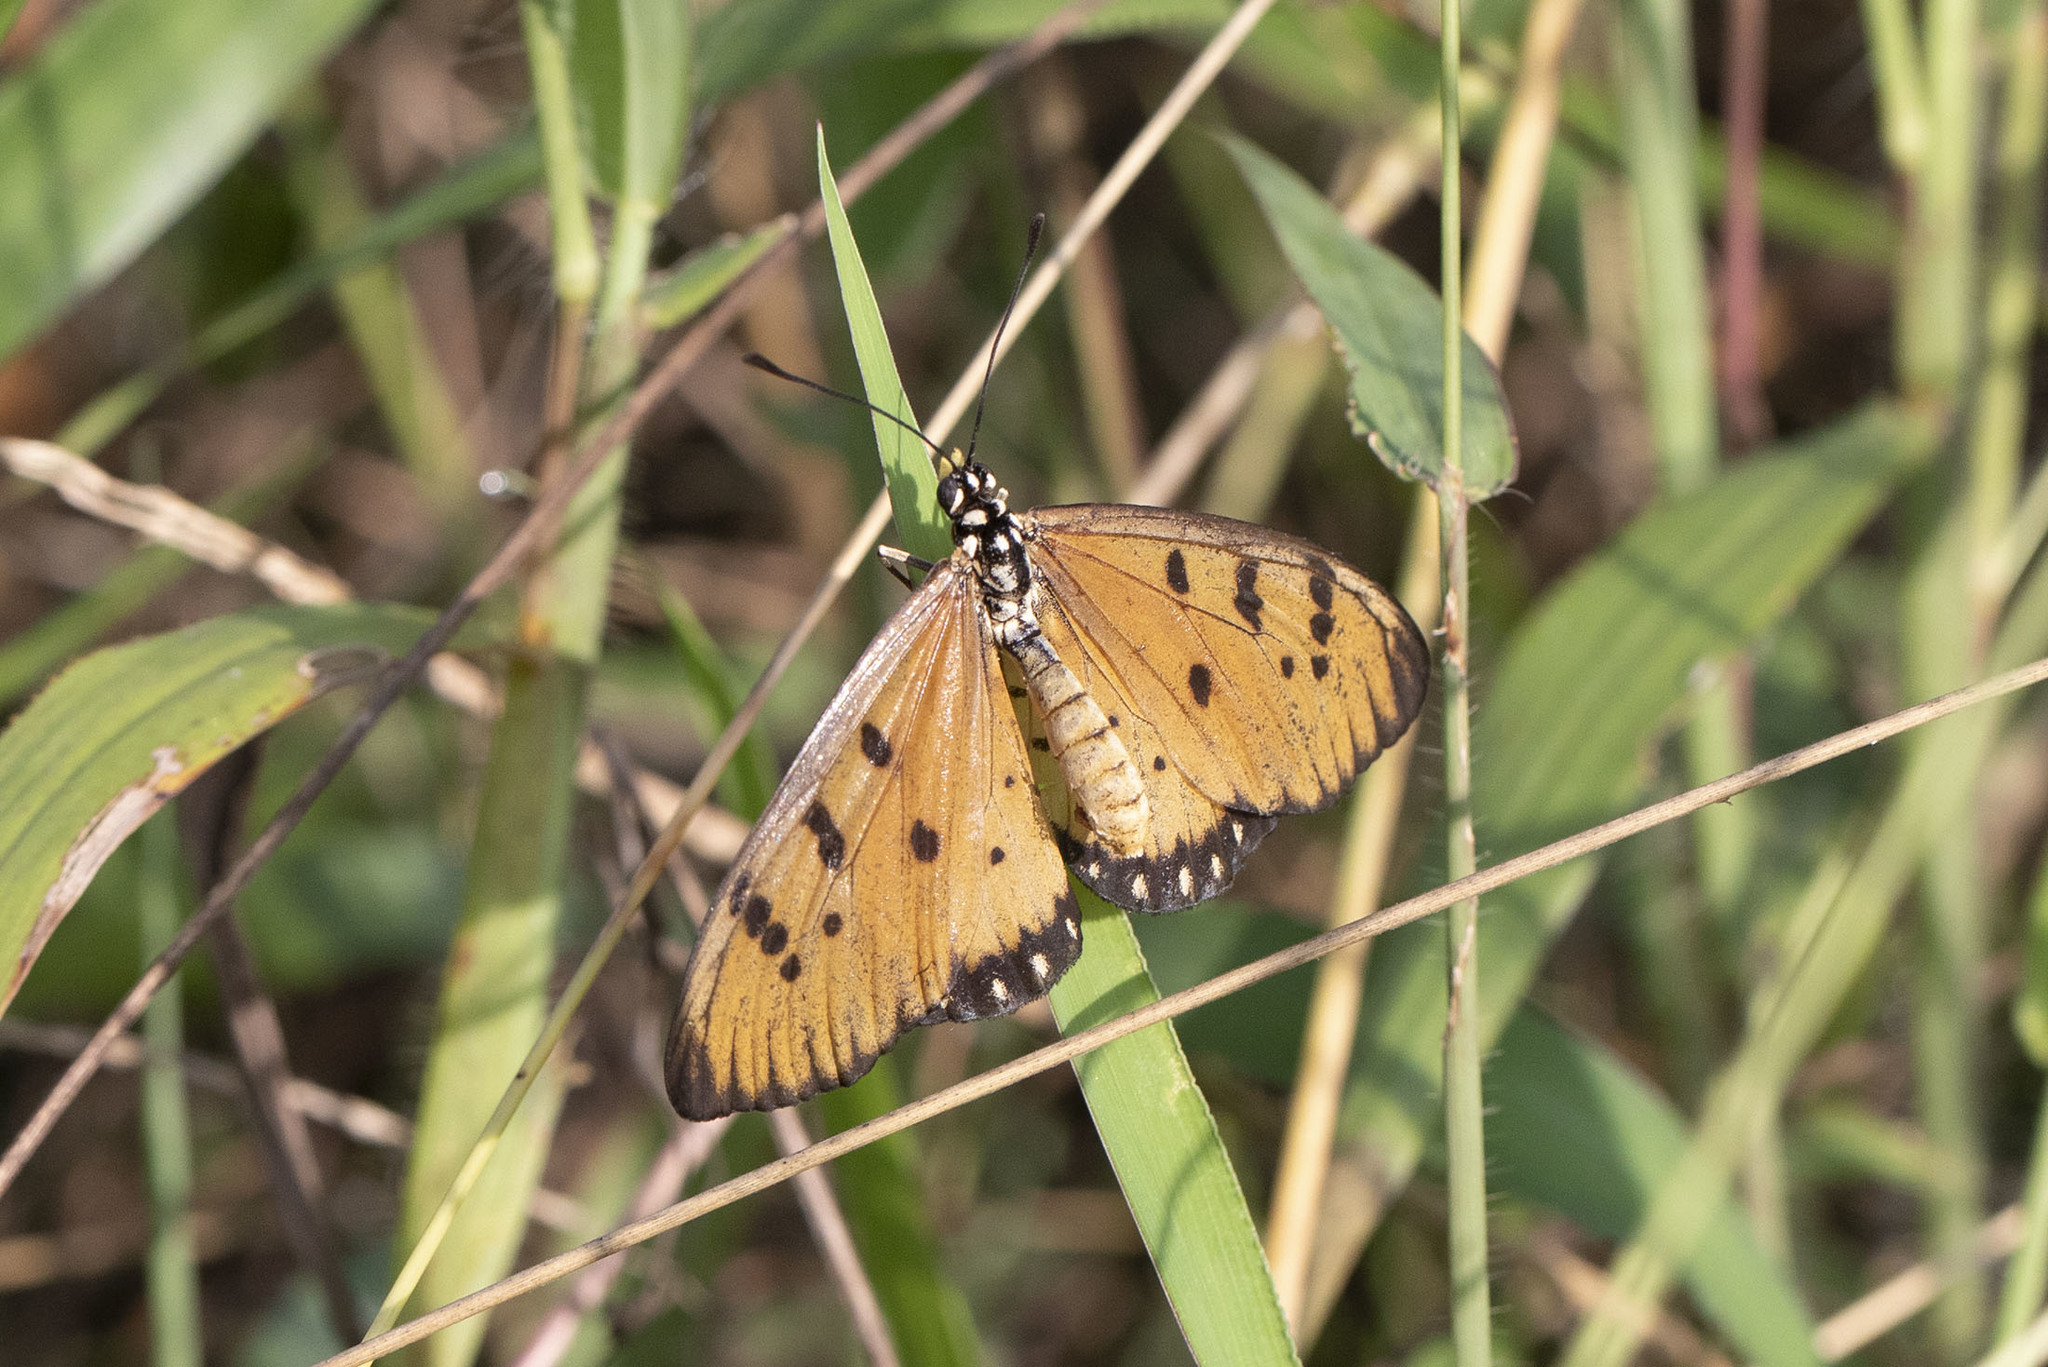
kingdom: Animalia
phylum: Arthropoda
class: Insecta
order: Lepidoptera
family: Nymphalidae
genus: Acraea
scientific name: Acraea terpsicore
